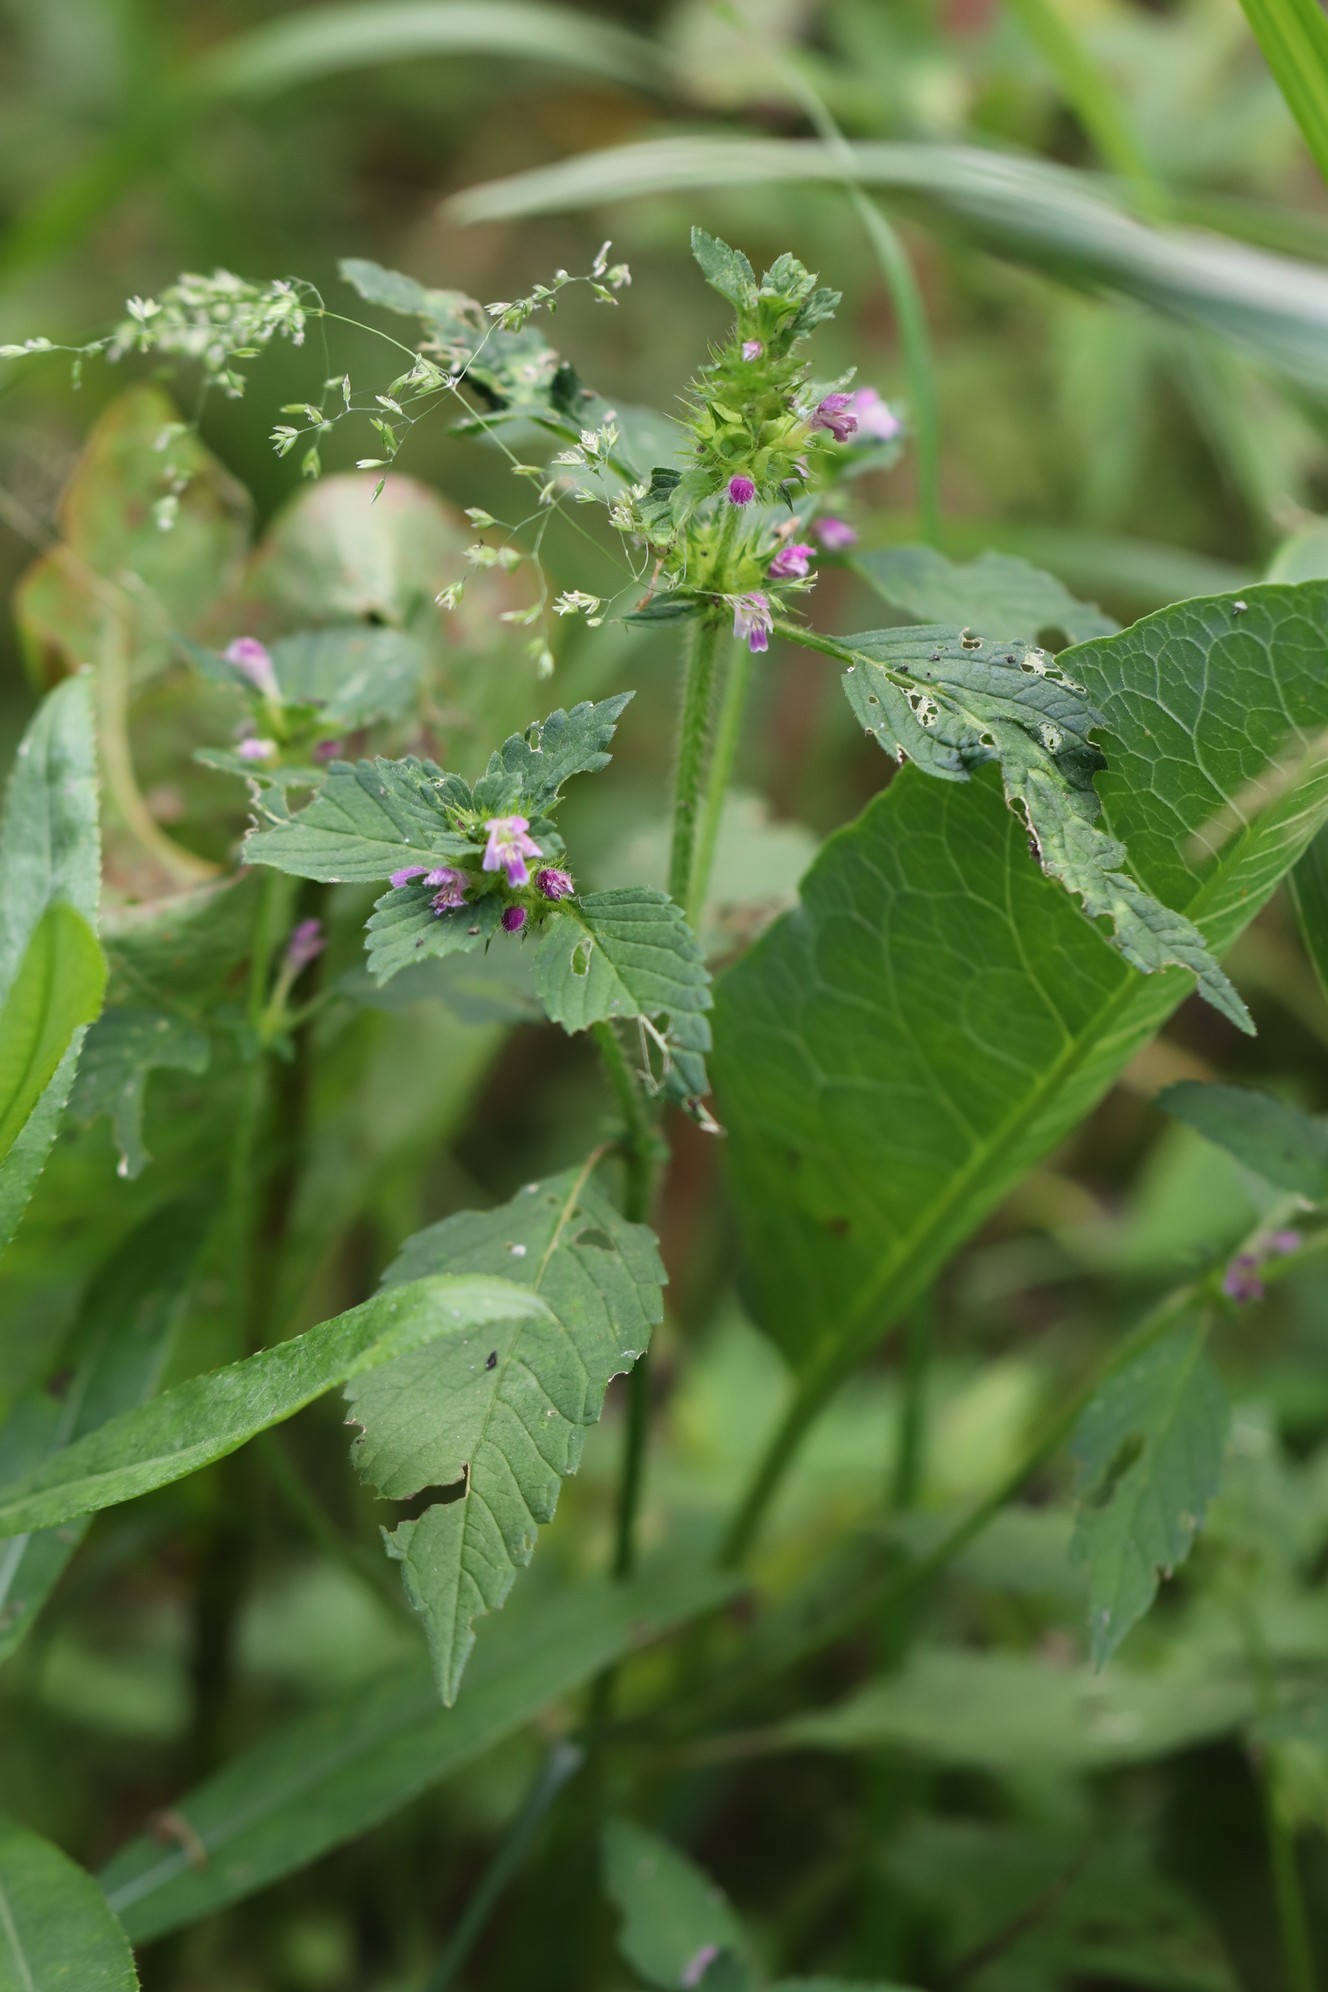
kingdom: Plantae
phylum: Tracheophyta
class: Magnoliopsida
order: Lamiales
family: Lamiaceae
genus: Galeopsis
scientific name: Galeopsis bifida
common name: Bifid hemp-nettle
